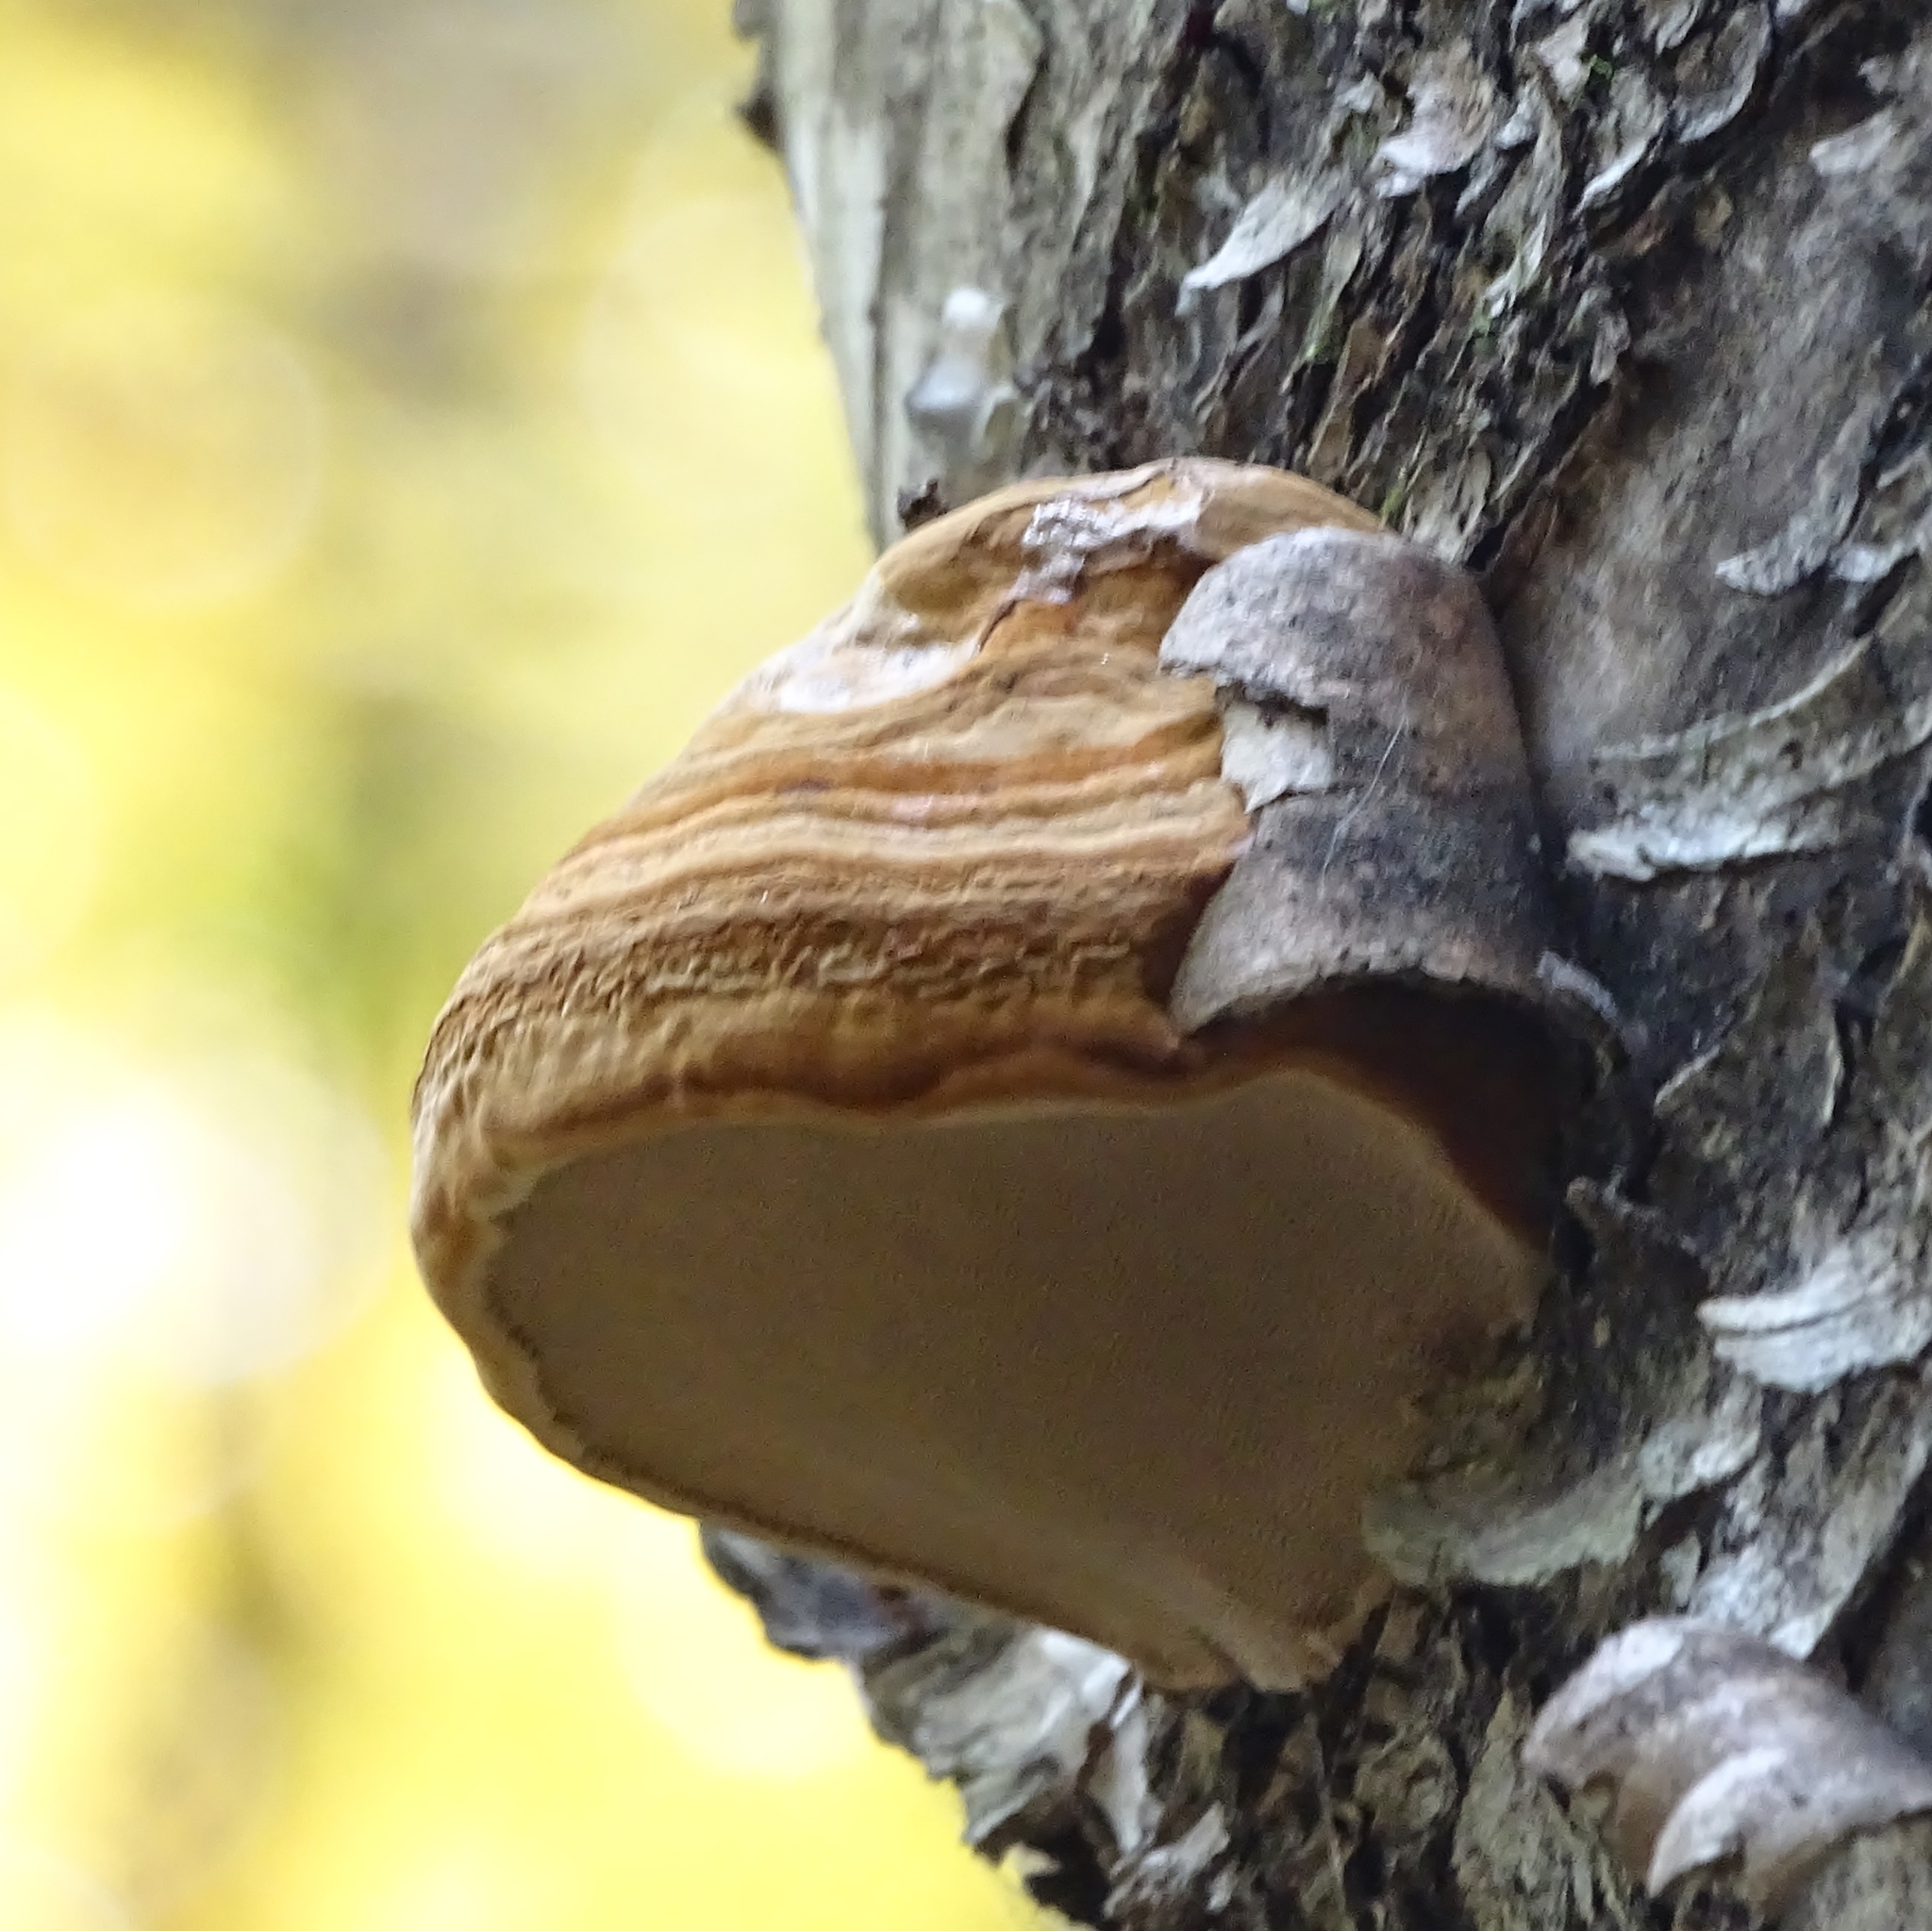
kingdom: Fungi
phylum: Basidiomycota
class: Agaricomycetes
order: Polyporales
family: Polyporaceae
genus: Fomes
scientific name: Fomes fomentarius
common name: Hoof fungus
